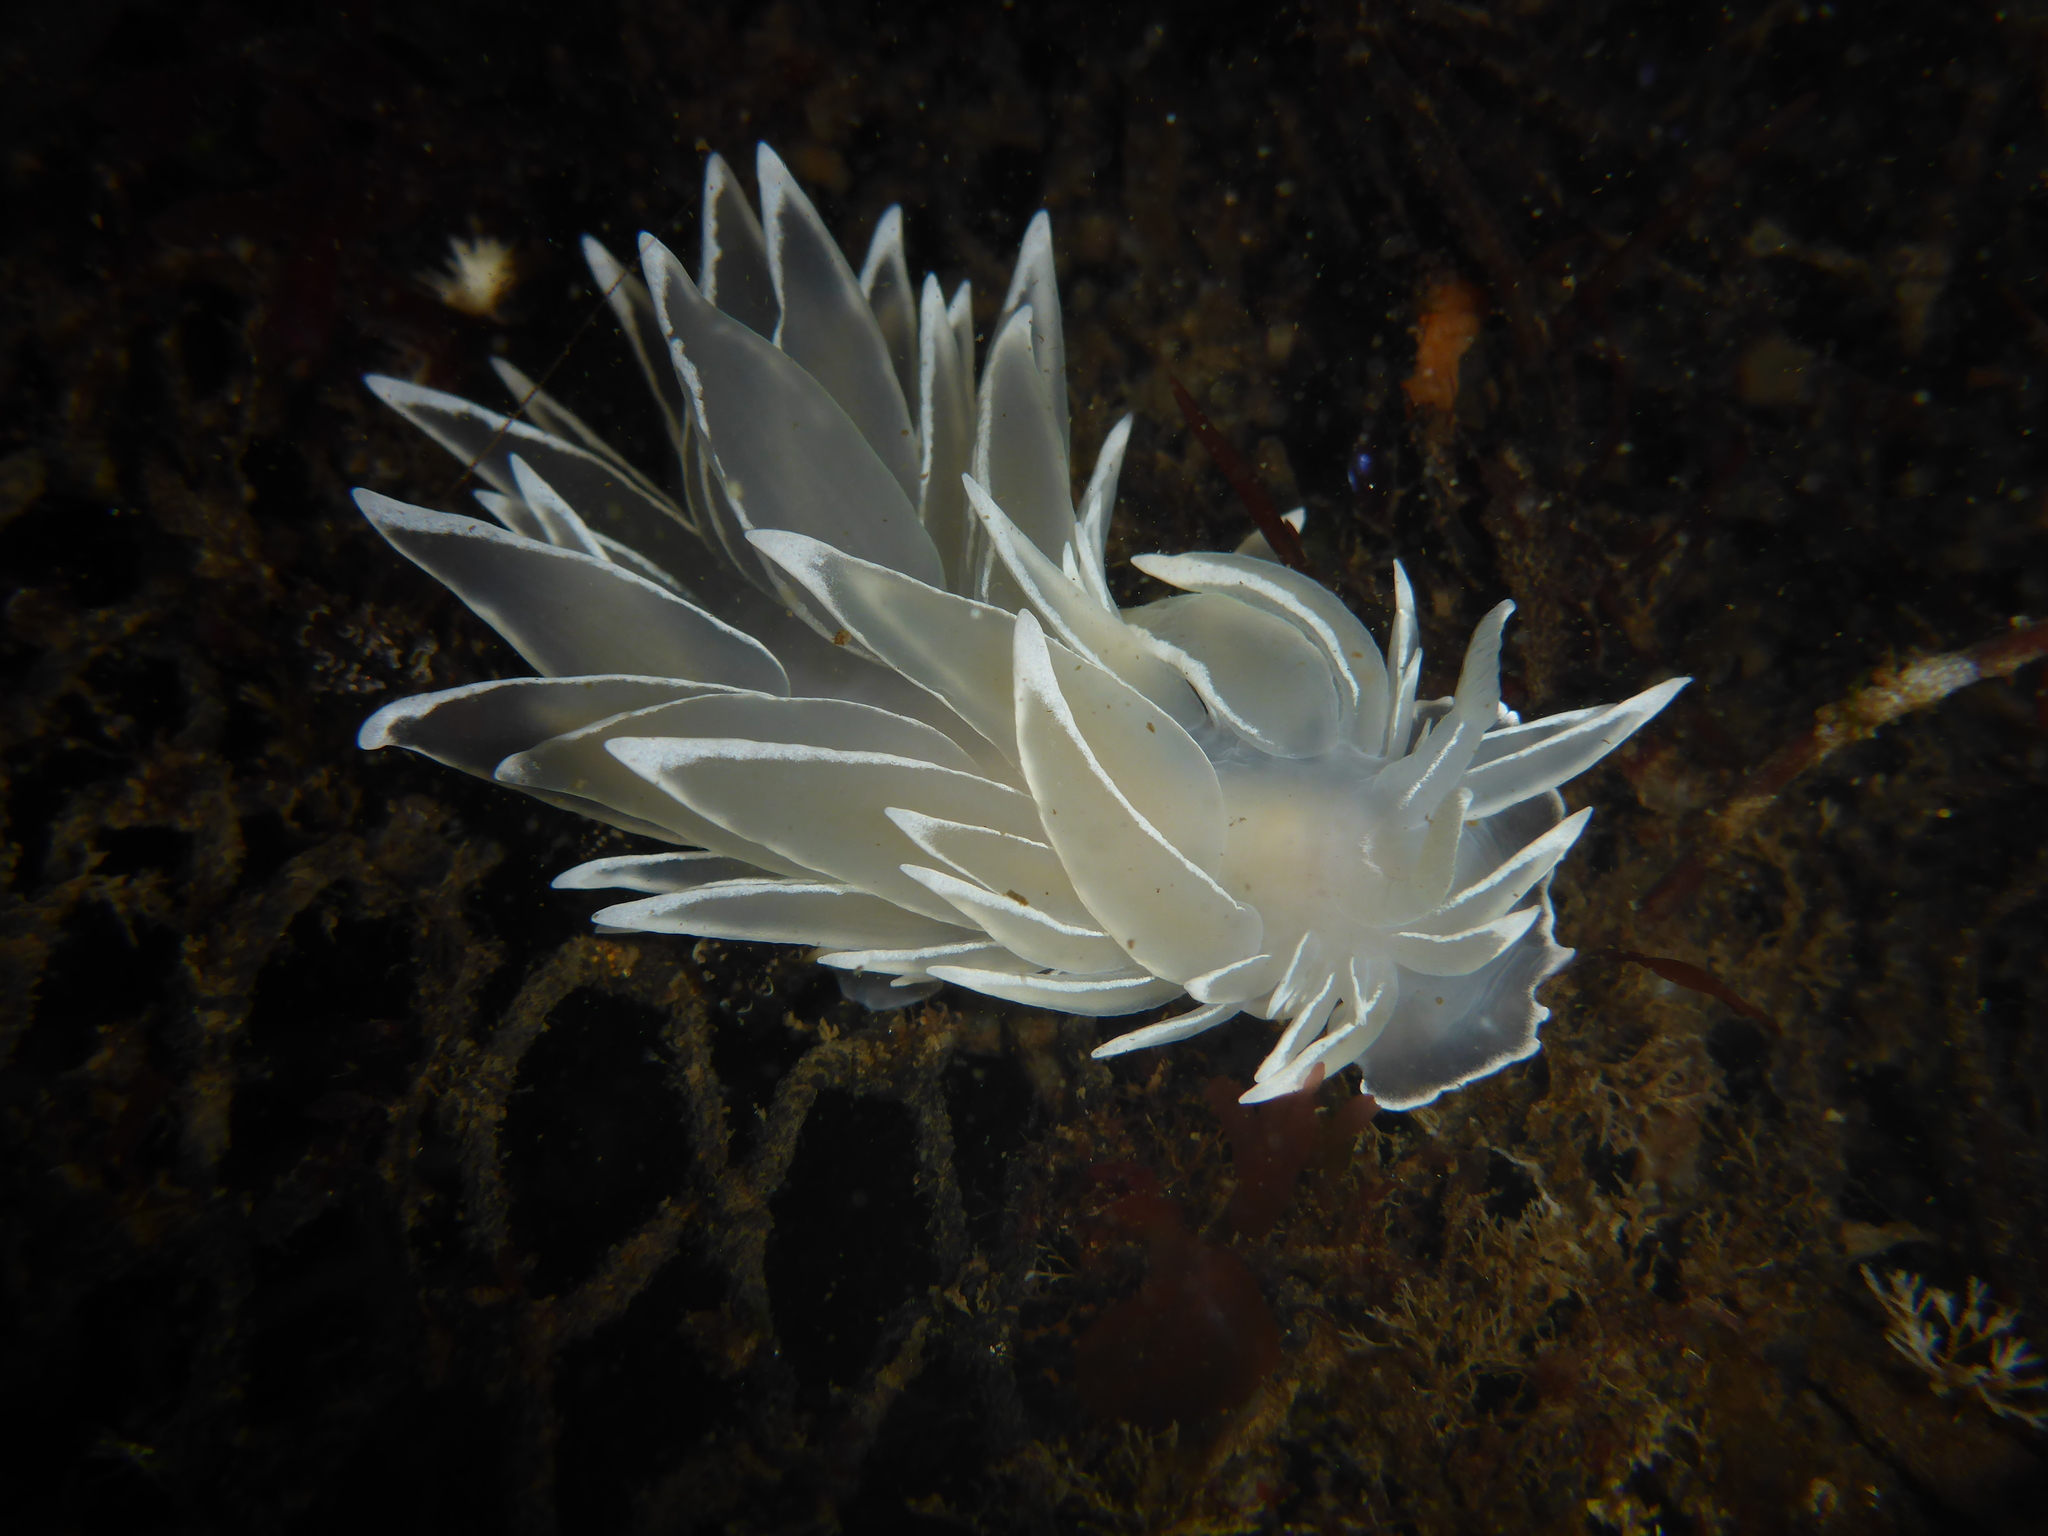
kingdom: Animalia
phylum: Mollusca
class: Gastropoda
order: Nudibranchia
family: Dironidae
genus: Dirona
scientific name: Dirona albolineata
